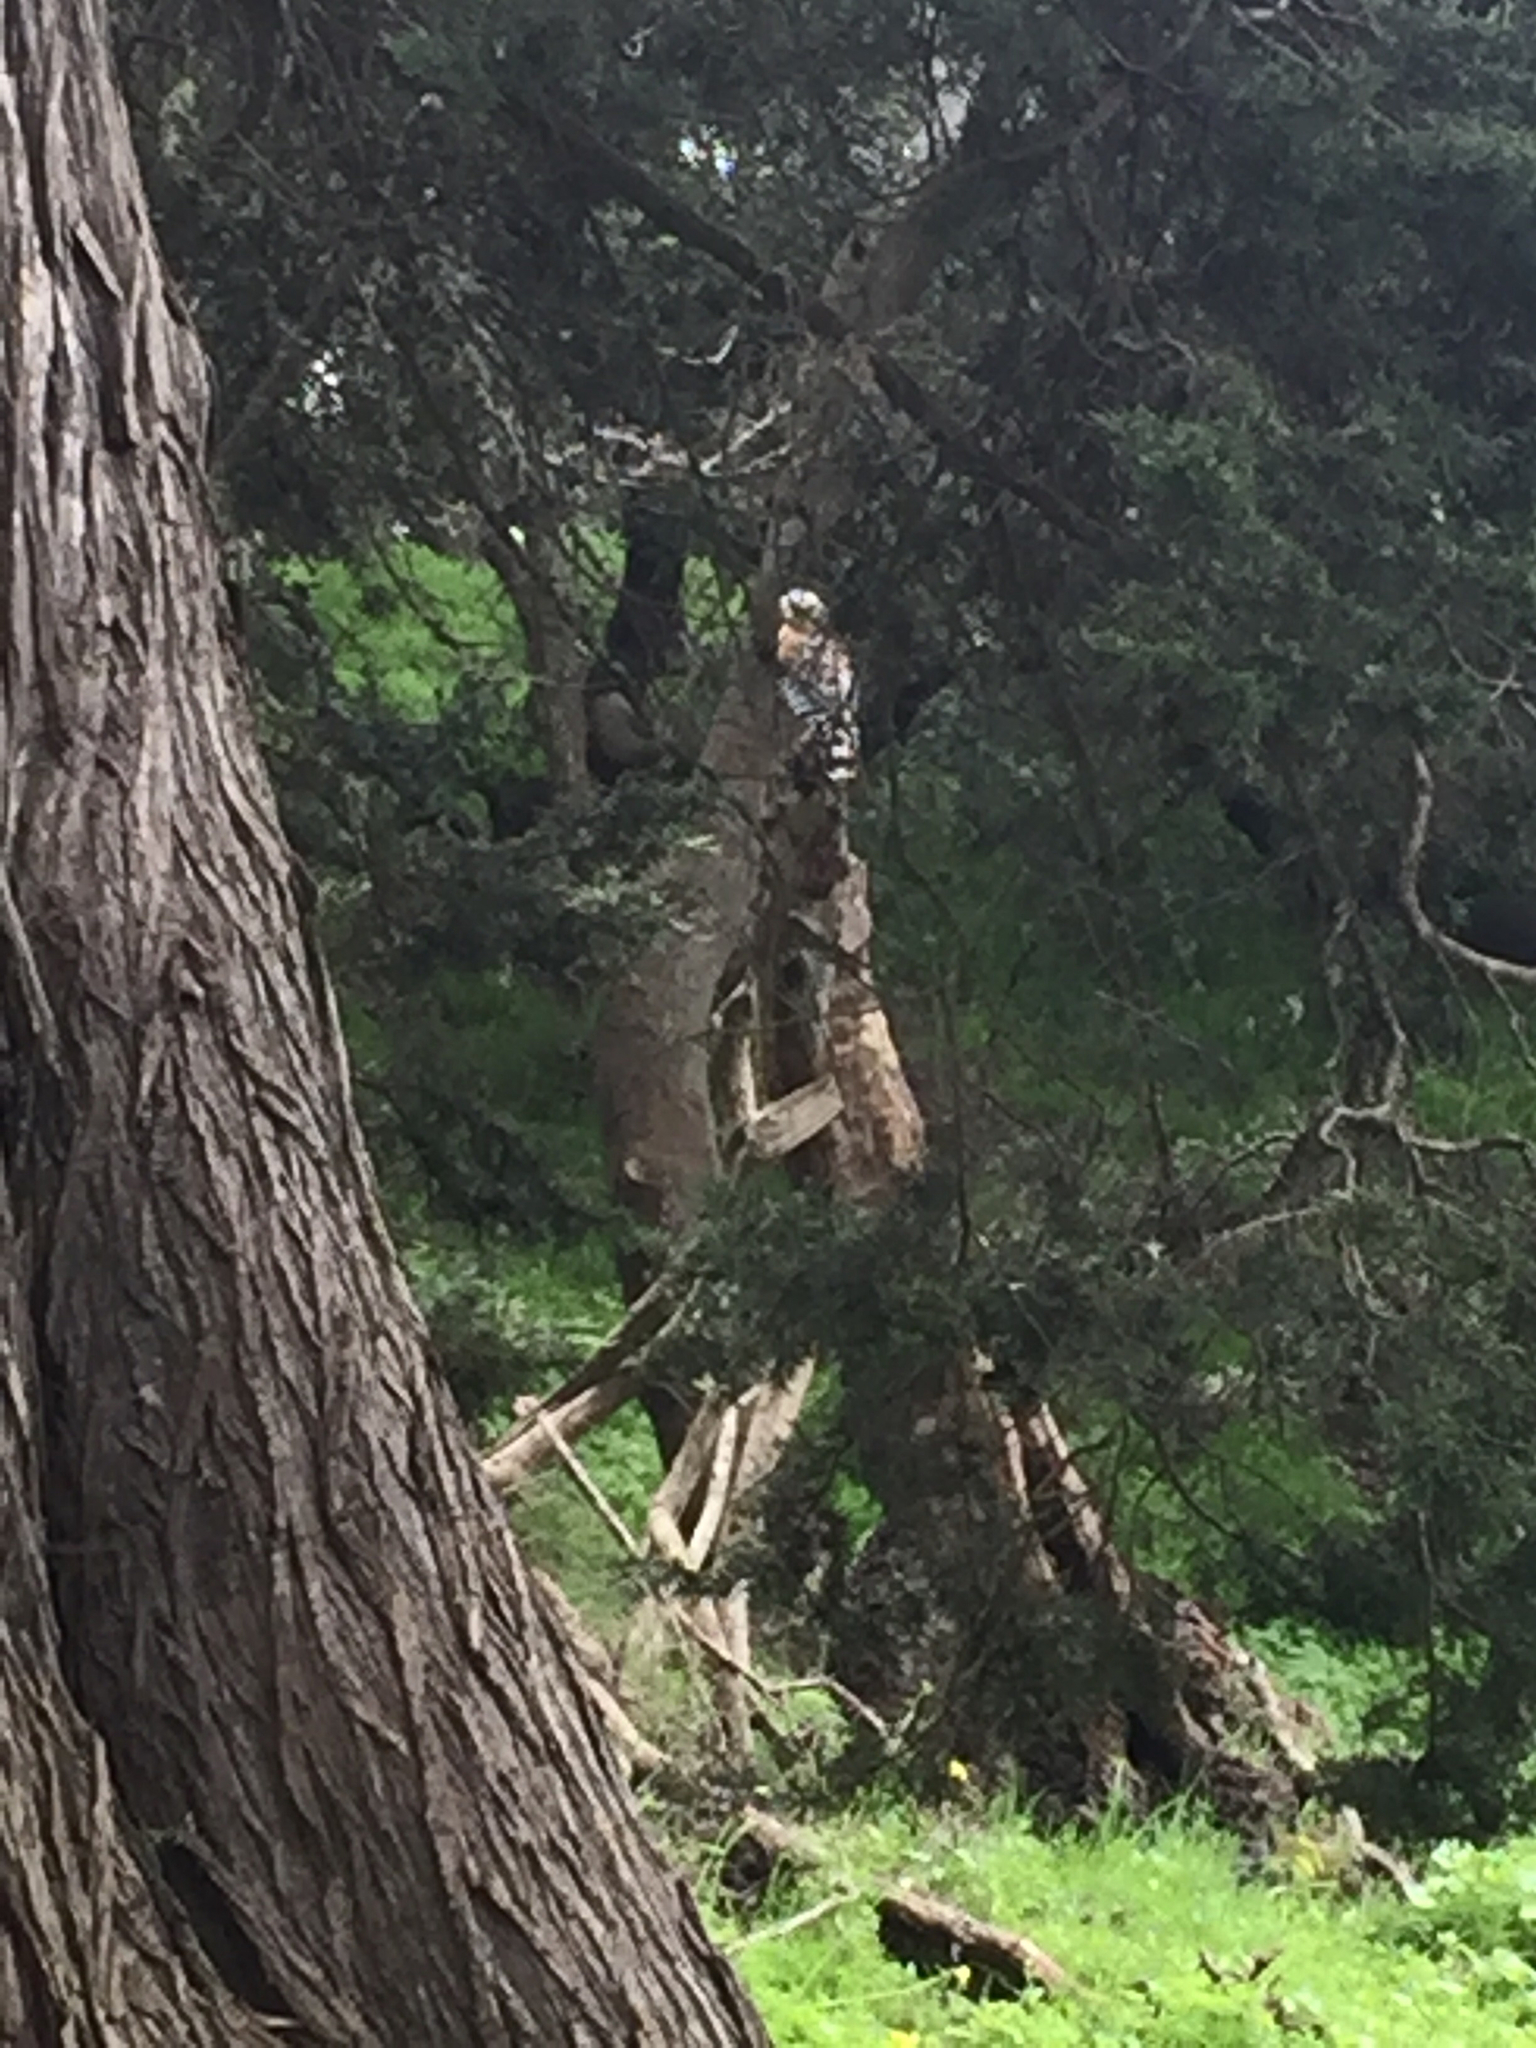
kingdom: Animalia
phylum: Chordata
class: Aves
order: Accipitriformes
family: Accipitridae
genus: Buteo
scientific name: Buteo lineatus
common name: Red-shouldered hawk
